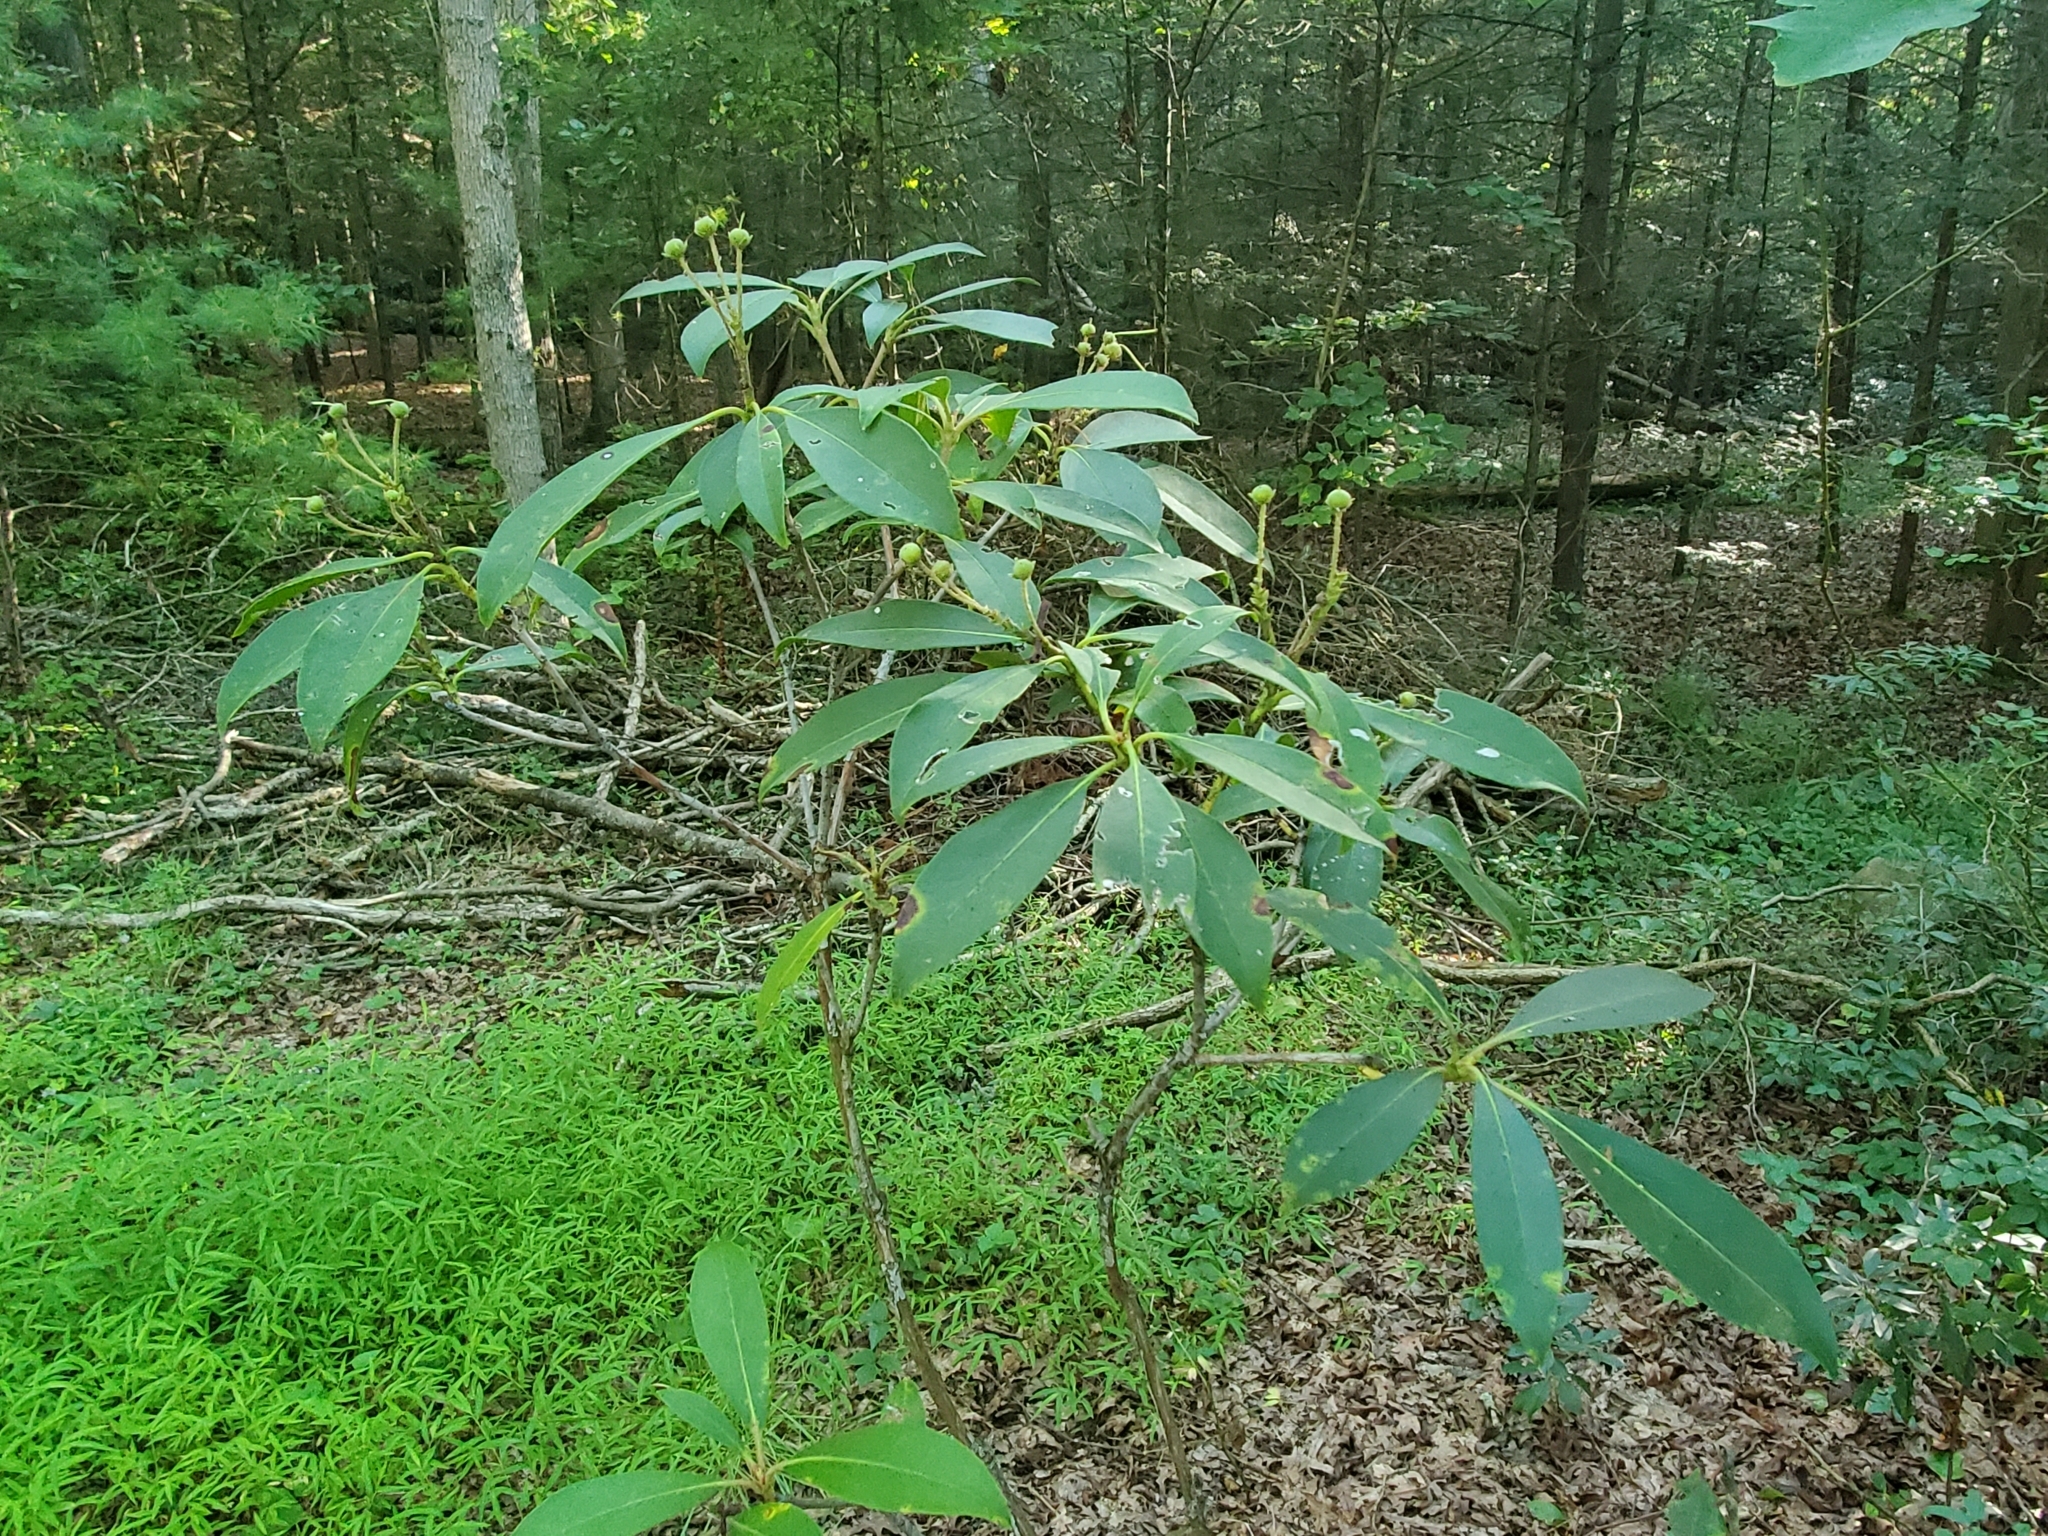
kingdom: Plantae
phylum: Tracheophyta
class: Magnoliopsida
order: Ericales
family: Ericaceae
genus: Kalmia
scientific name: Kalmia latifolia
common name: Mountain-laurel
